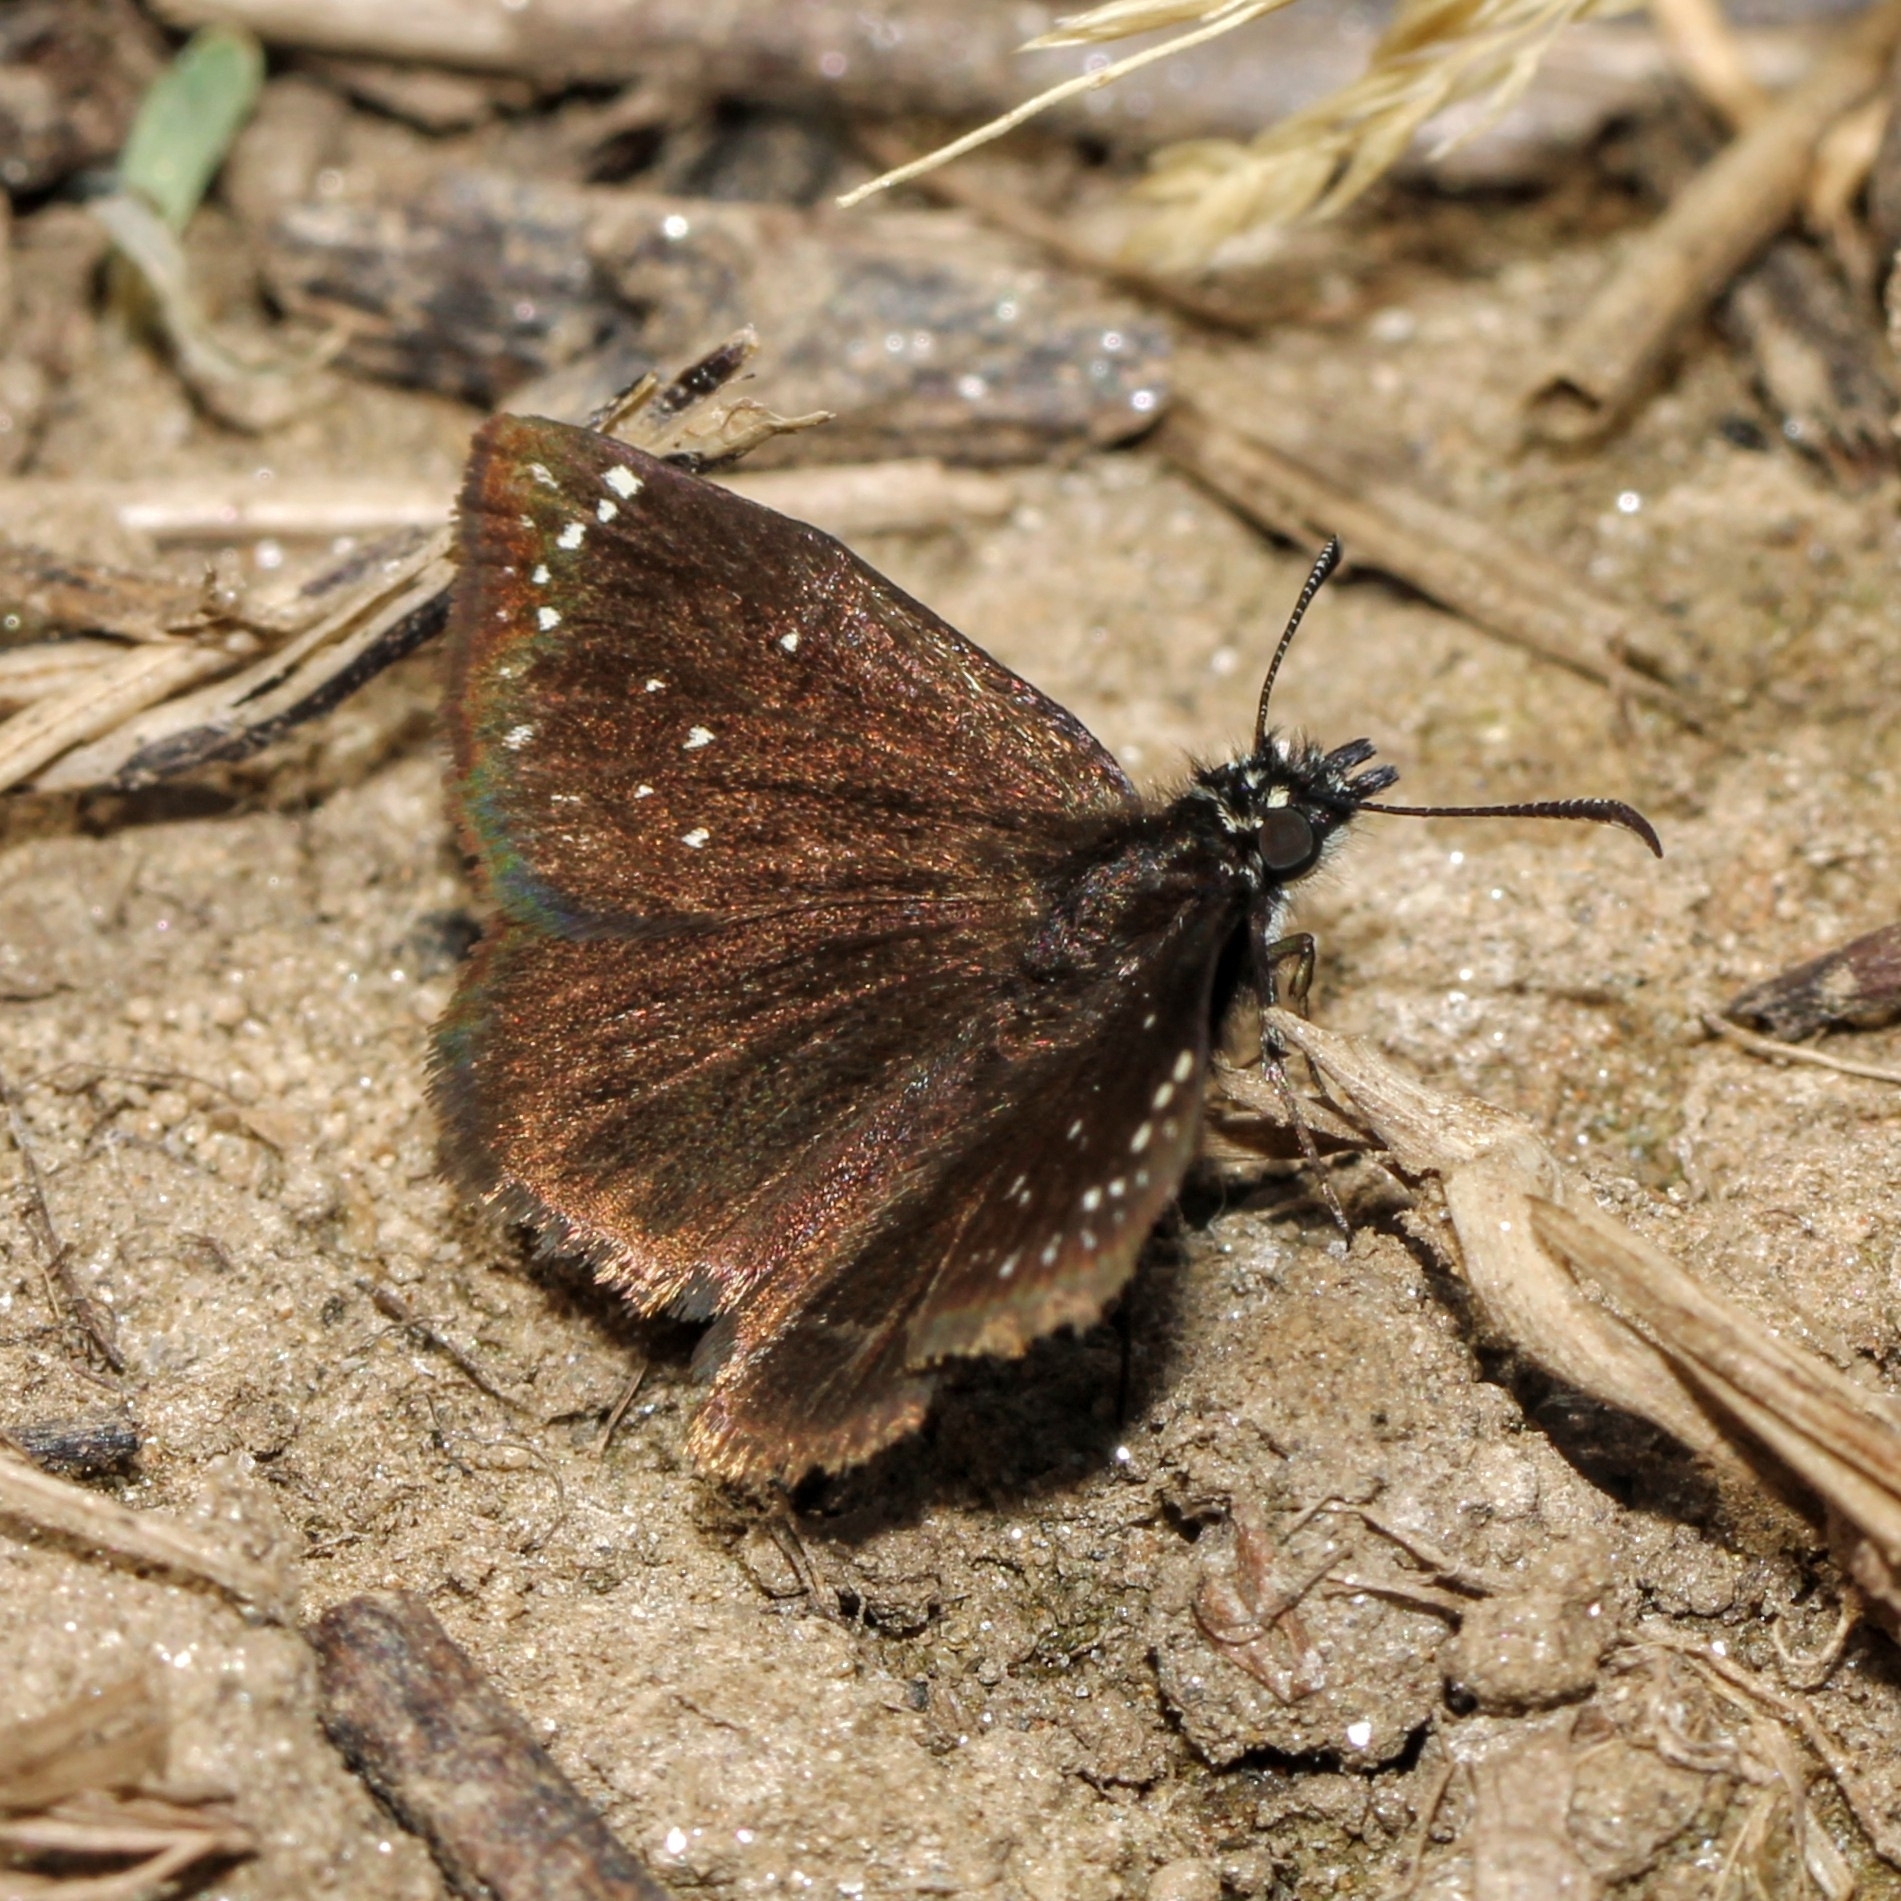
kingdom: Animalia
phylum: Arthropoda
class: Insecta
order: Lepidoptera
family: Hesperiidae
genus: Pholisora
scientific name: Pholisora catullus
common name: Common sootywing
